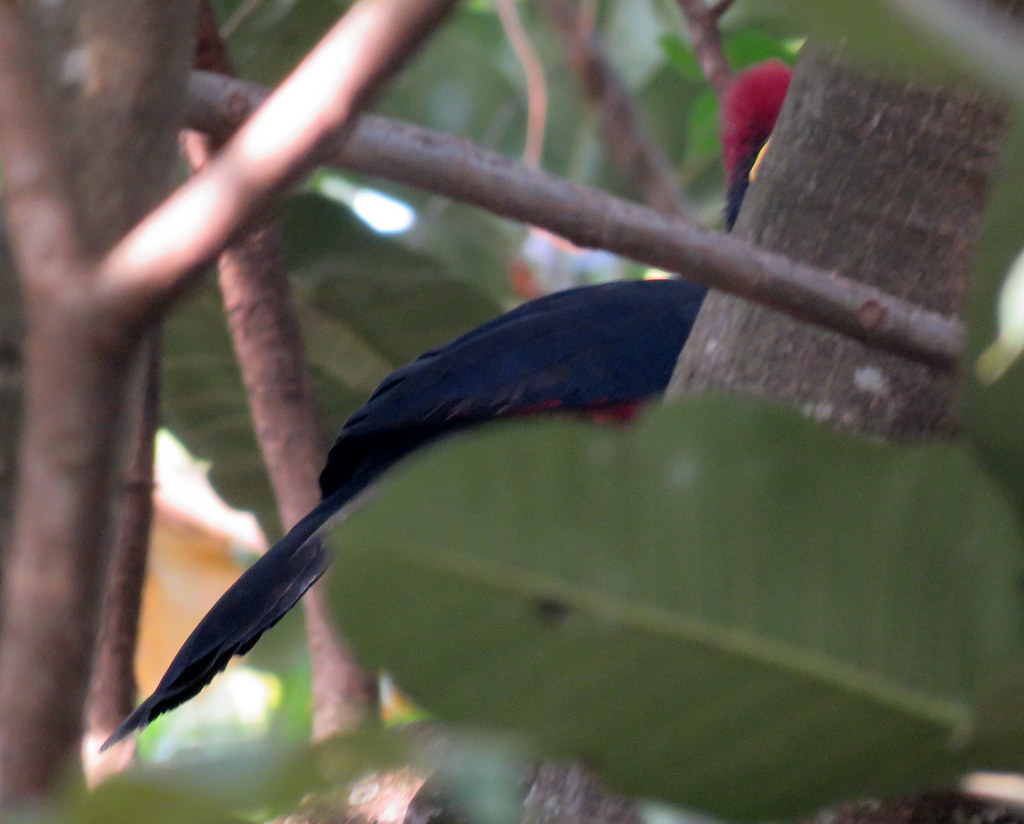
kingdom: Animalia
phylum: Chordata
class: Aves
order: Musophagiformes
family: Musophagidae
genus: Musophaga
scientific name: Musophaga rossae
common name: Ross's turaco
